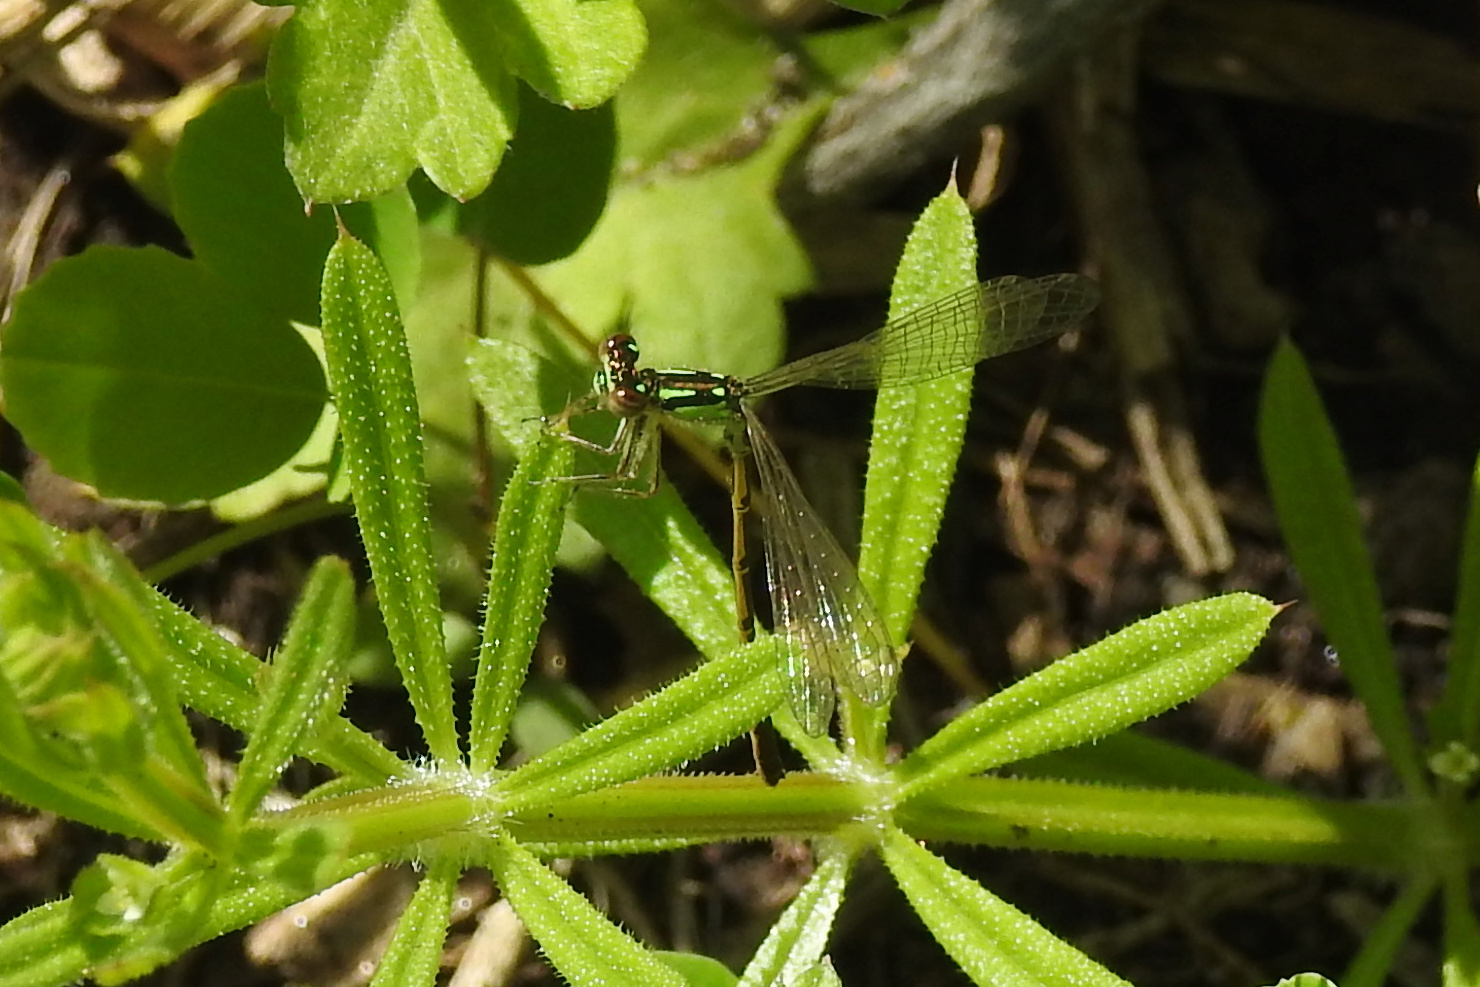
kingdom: Animalia
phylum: Arthropoda
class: Insecta
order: Odonata
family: Coenagrionidae
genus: Ischnura
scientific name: Ischnura posita
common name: Fragile forktail
